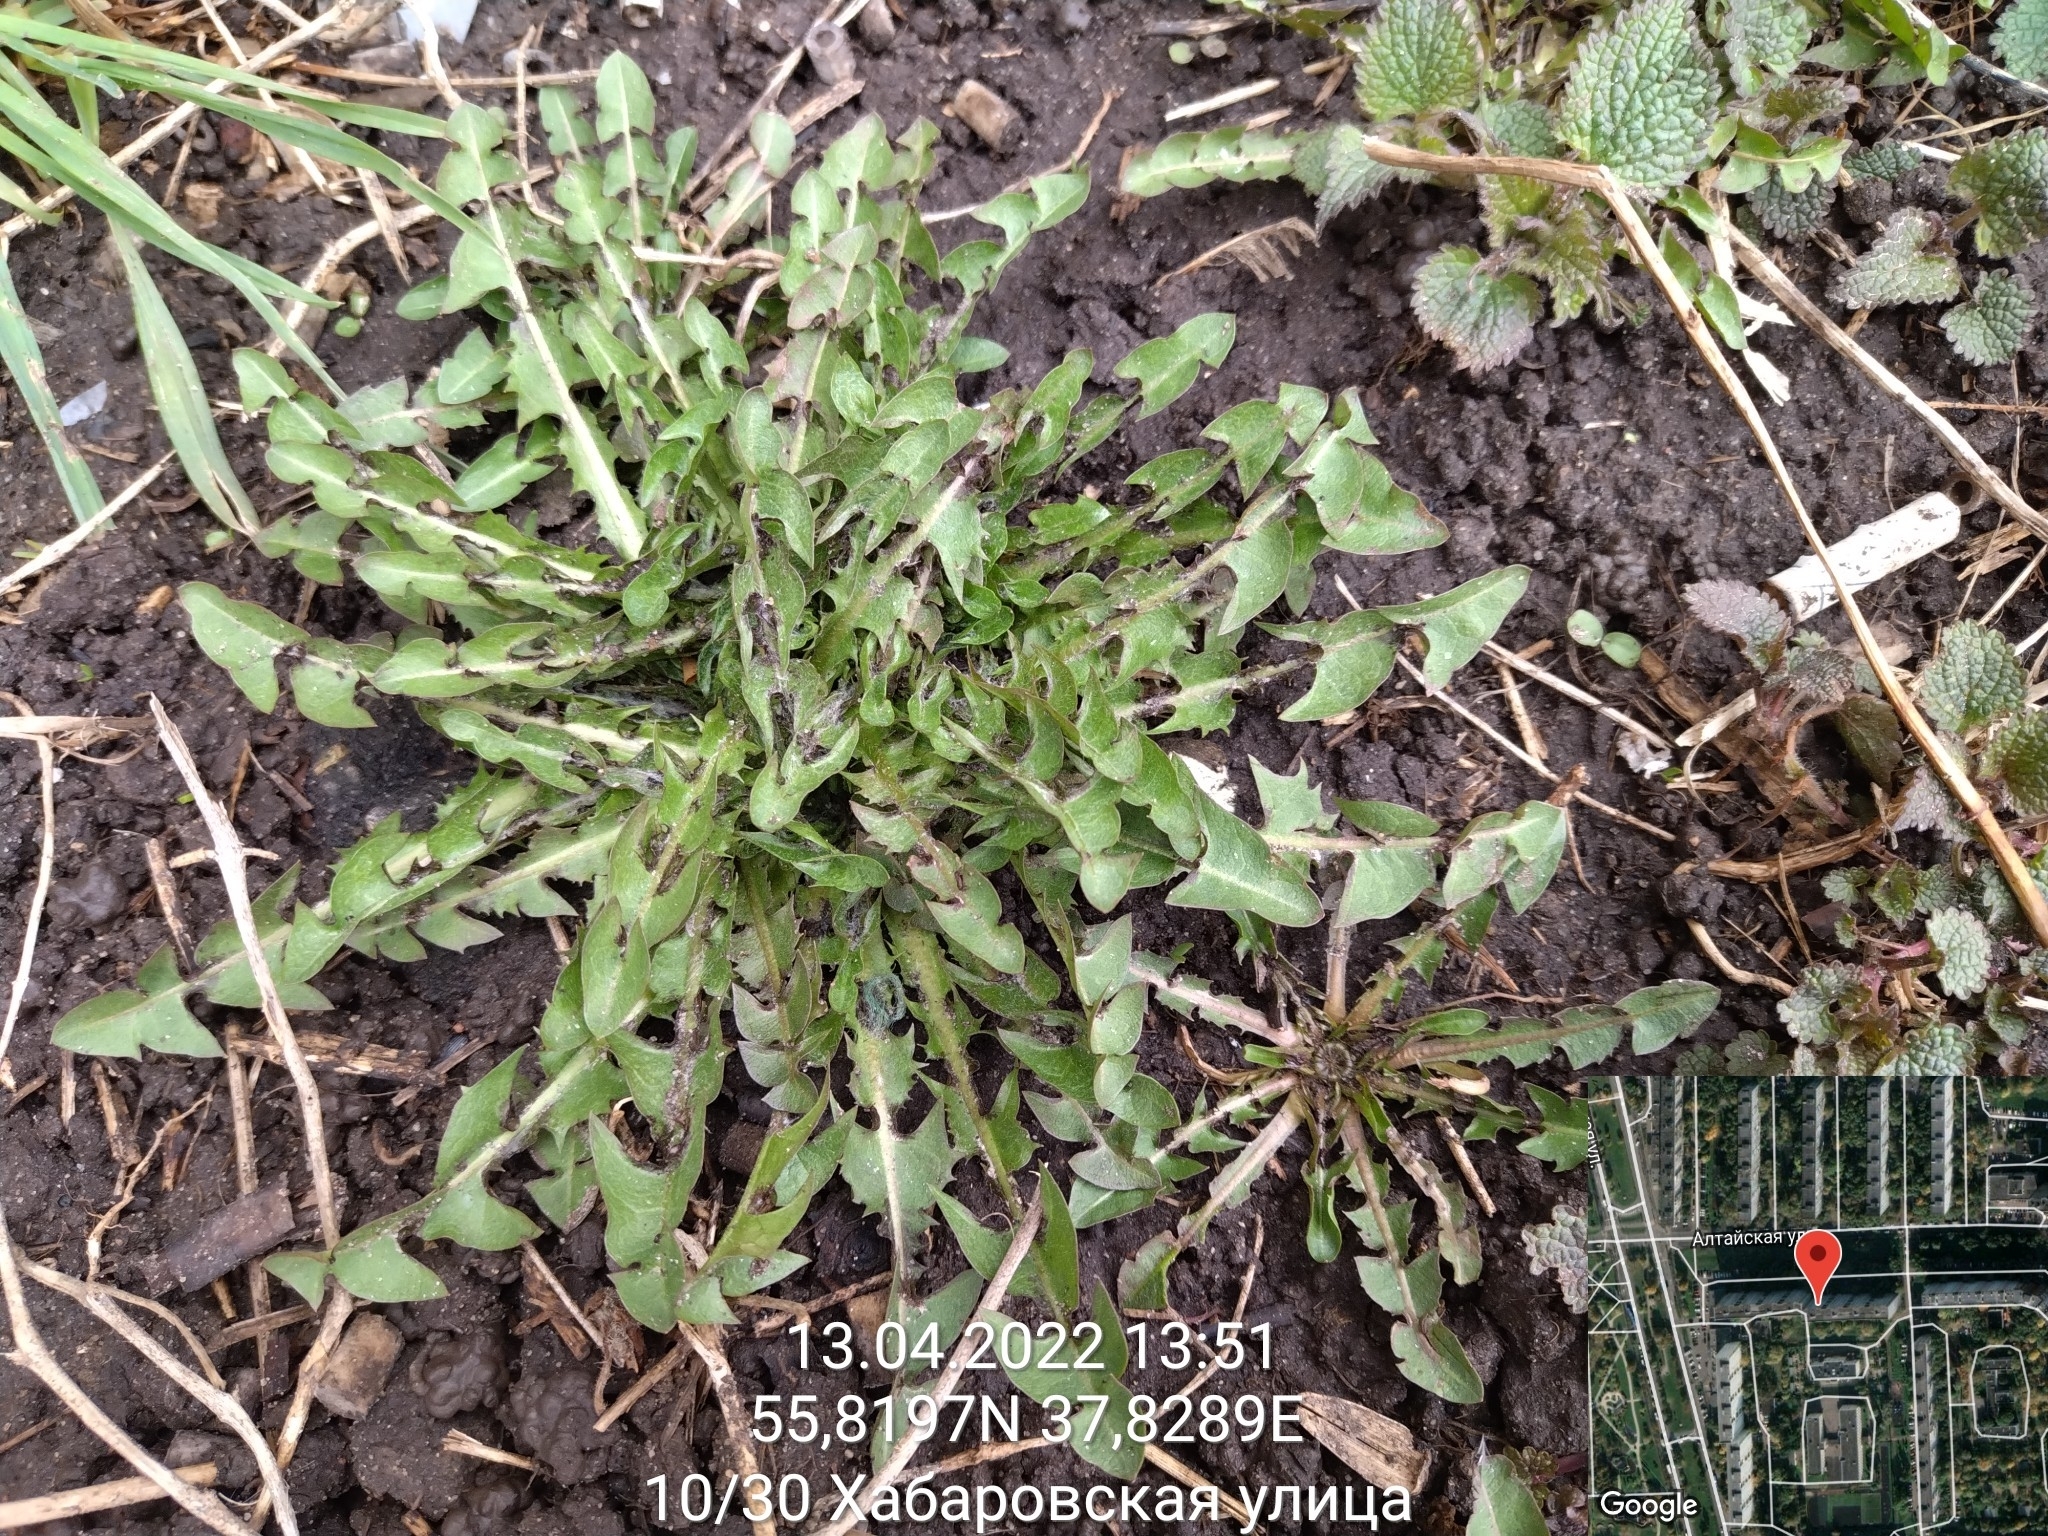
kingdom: Plantae
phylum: Tracheophyta
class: Magnoliopsida
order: Asterales
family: Asteraceae
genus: Taraxacum
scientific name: Taraxacum officinale
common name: Common dandelion
